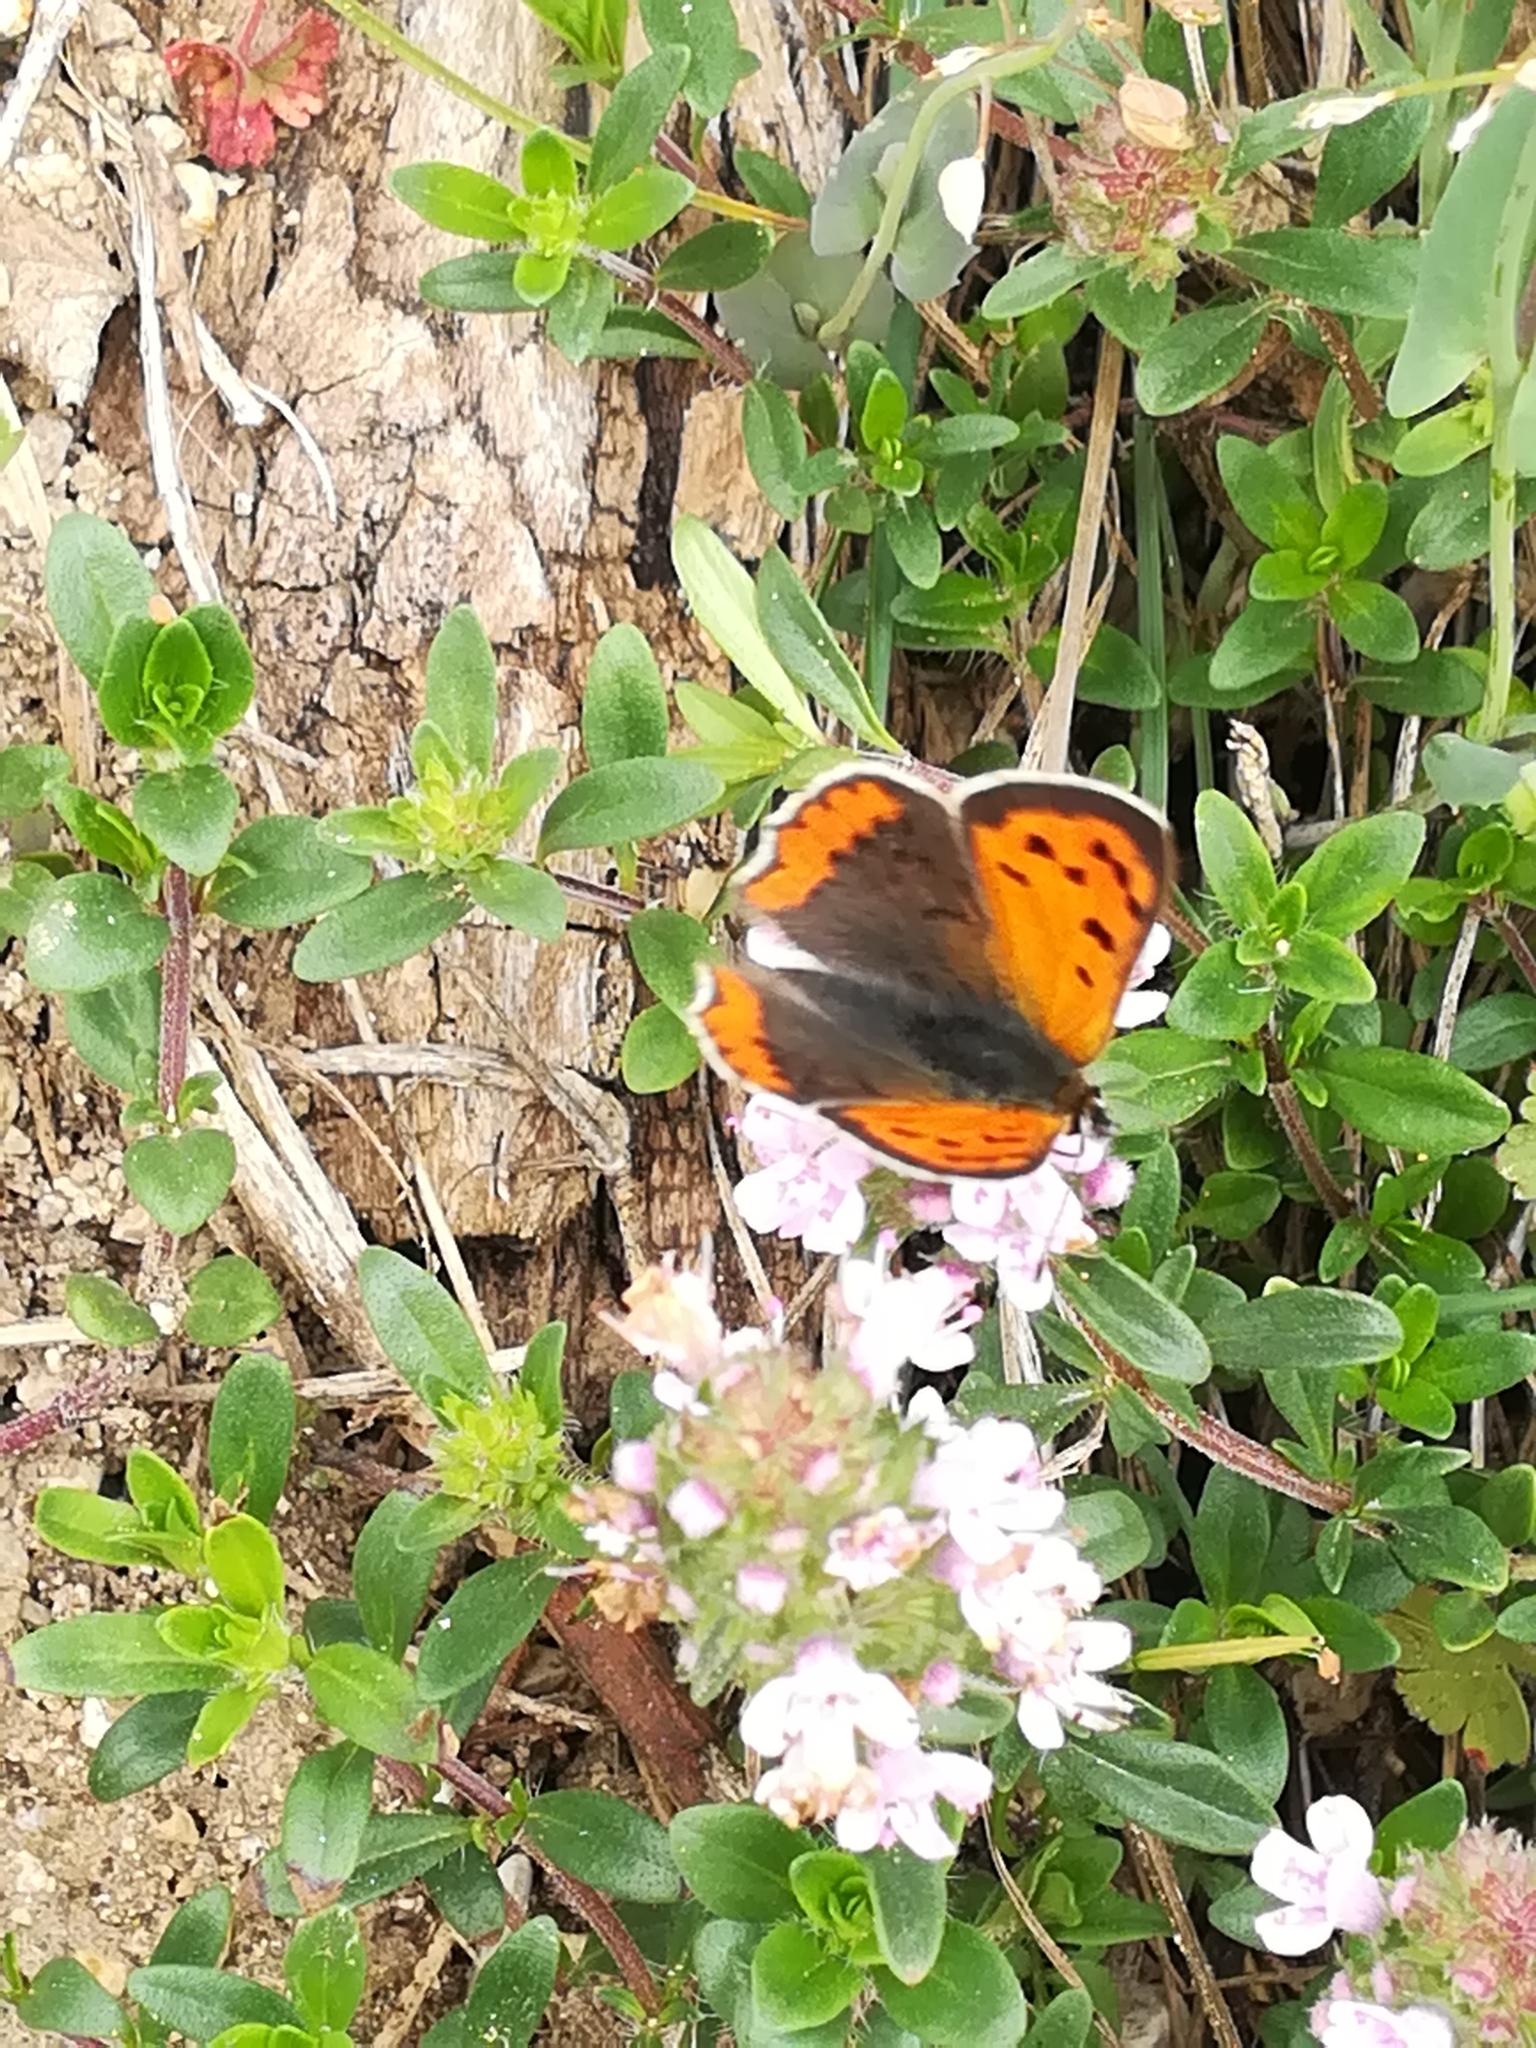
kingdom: Animalia
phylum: Arthropoda
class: Insecta
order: Lepidoptera
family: Lycaenidae
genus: Lycaena
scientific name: Lycaena phlaeas
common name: Small copper
